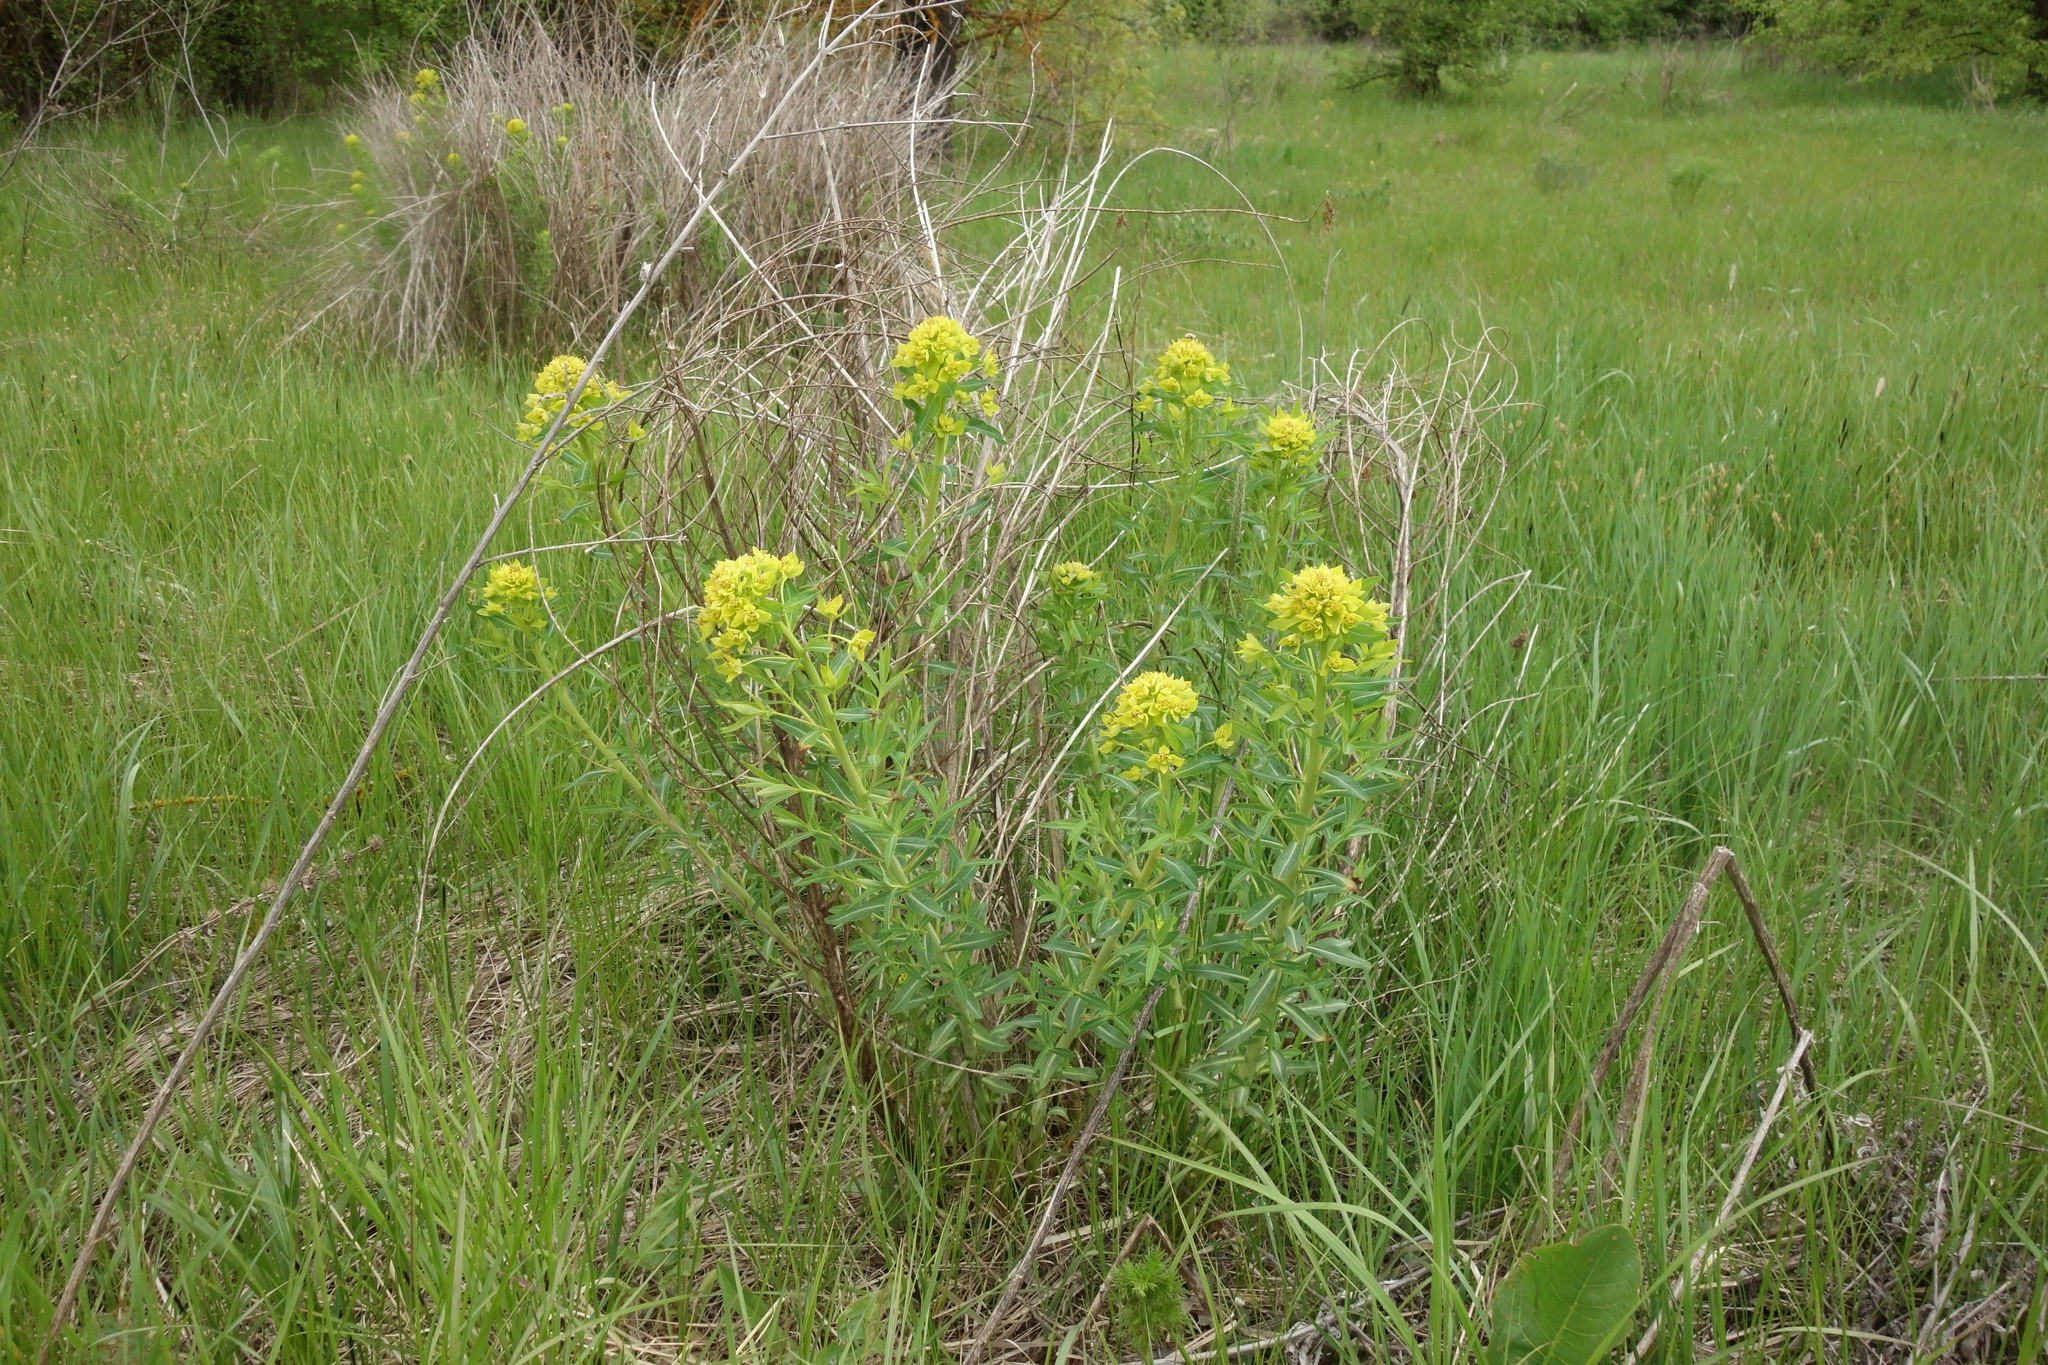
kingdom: Plantae
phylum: Tracheophyta
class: Magnoliopsida
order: Malpighiales
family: Euphorbiaceae
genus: Euphorbia
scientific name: Euphorbia palustris
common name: Marsh spurge
